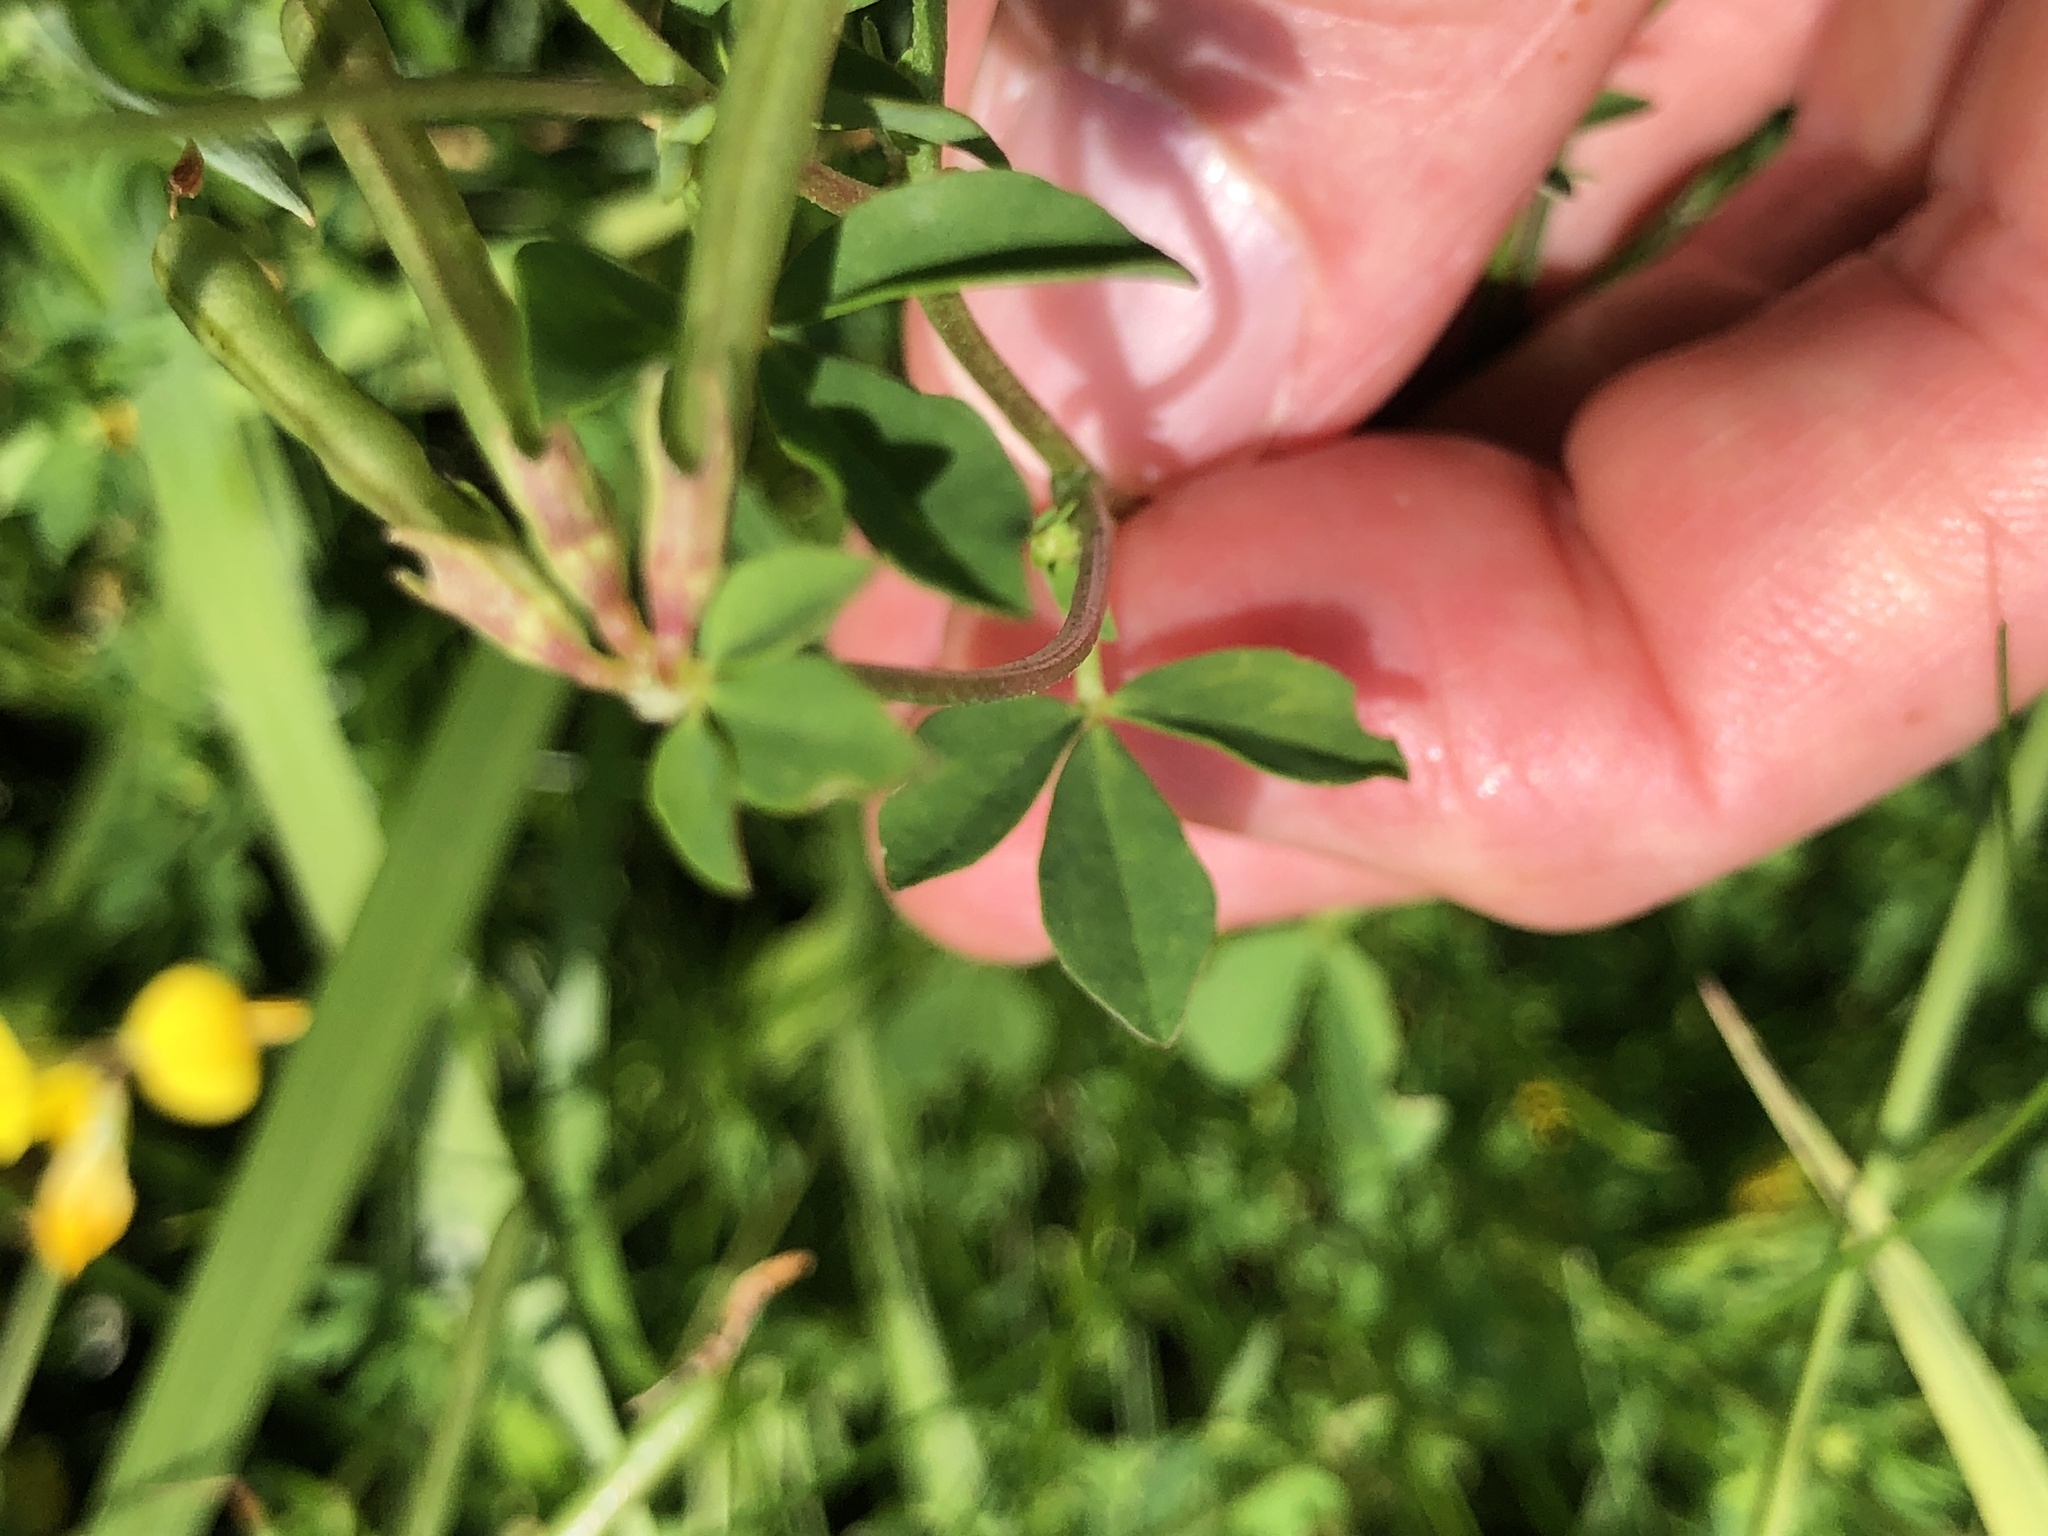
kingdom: Plantae
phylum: Tracheophyta
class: Magnoliopsida
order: Fabales
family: Fabaceae
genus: Lotus
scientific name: Lotus corniculatus
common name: Common bird's-foot-trefoil
